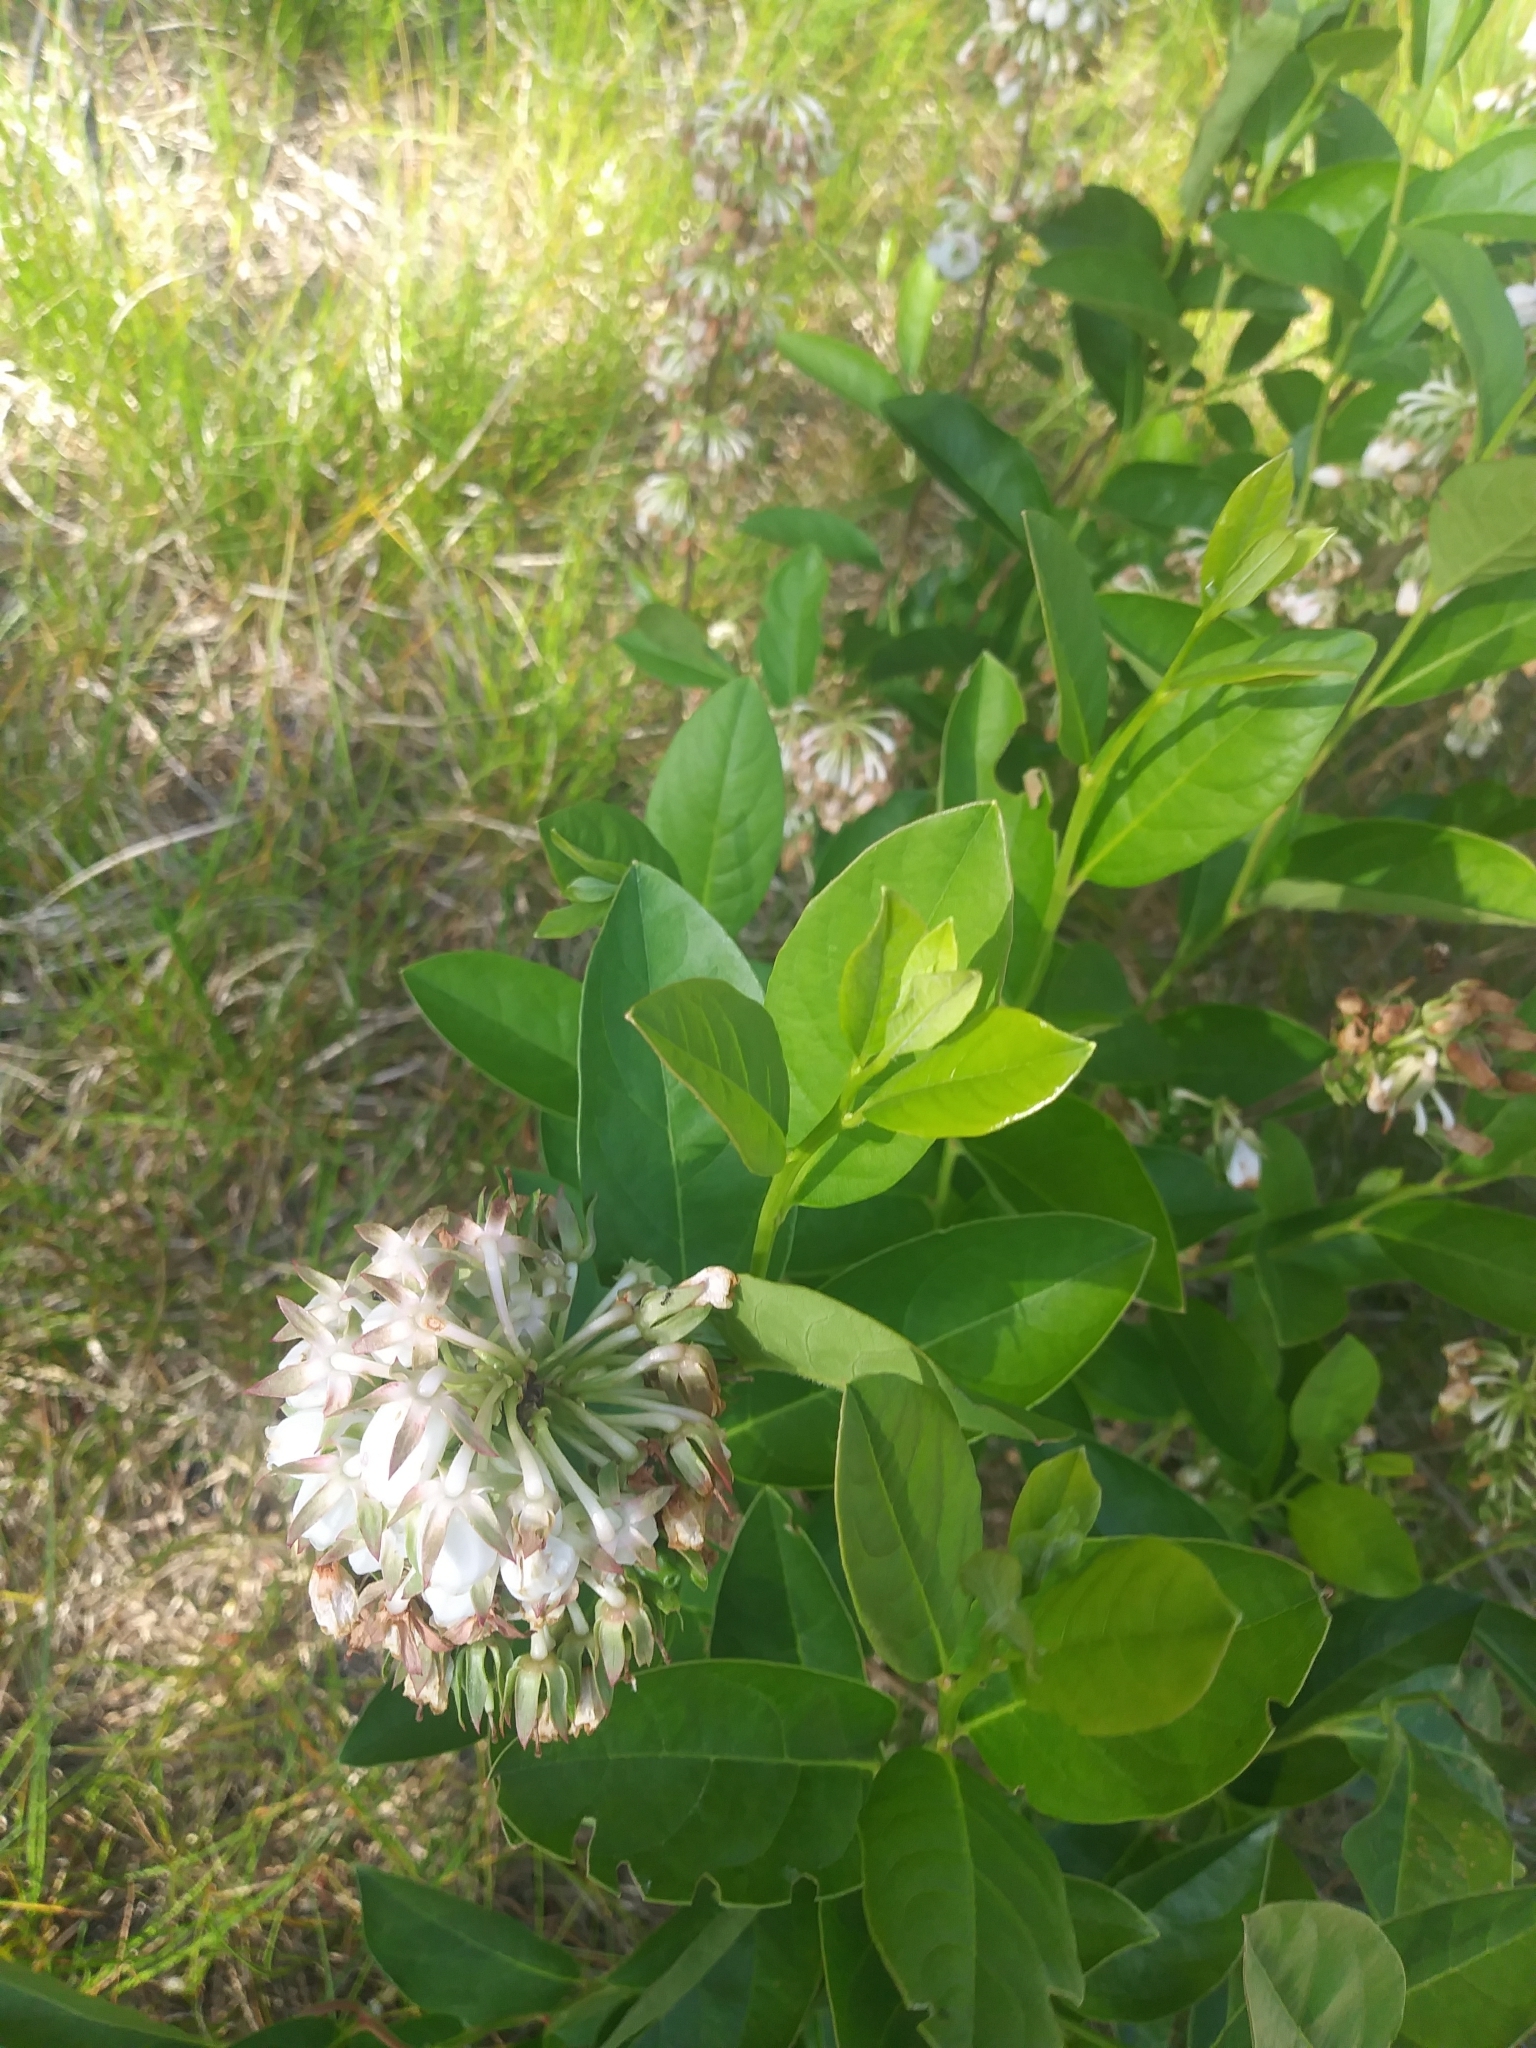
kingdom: Plantae
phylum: Tracheophyta
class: Magnoliopsida
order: Ericales
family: Ericaceae
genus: Lyonia
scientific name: Lyonia mariana
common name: Staggerbush
